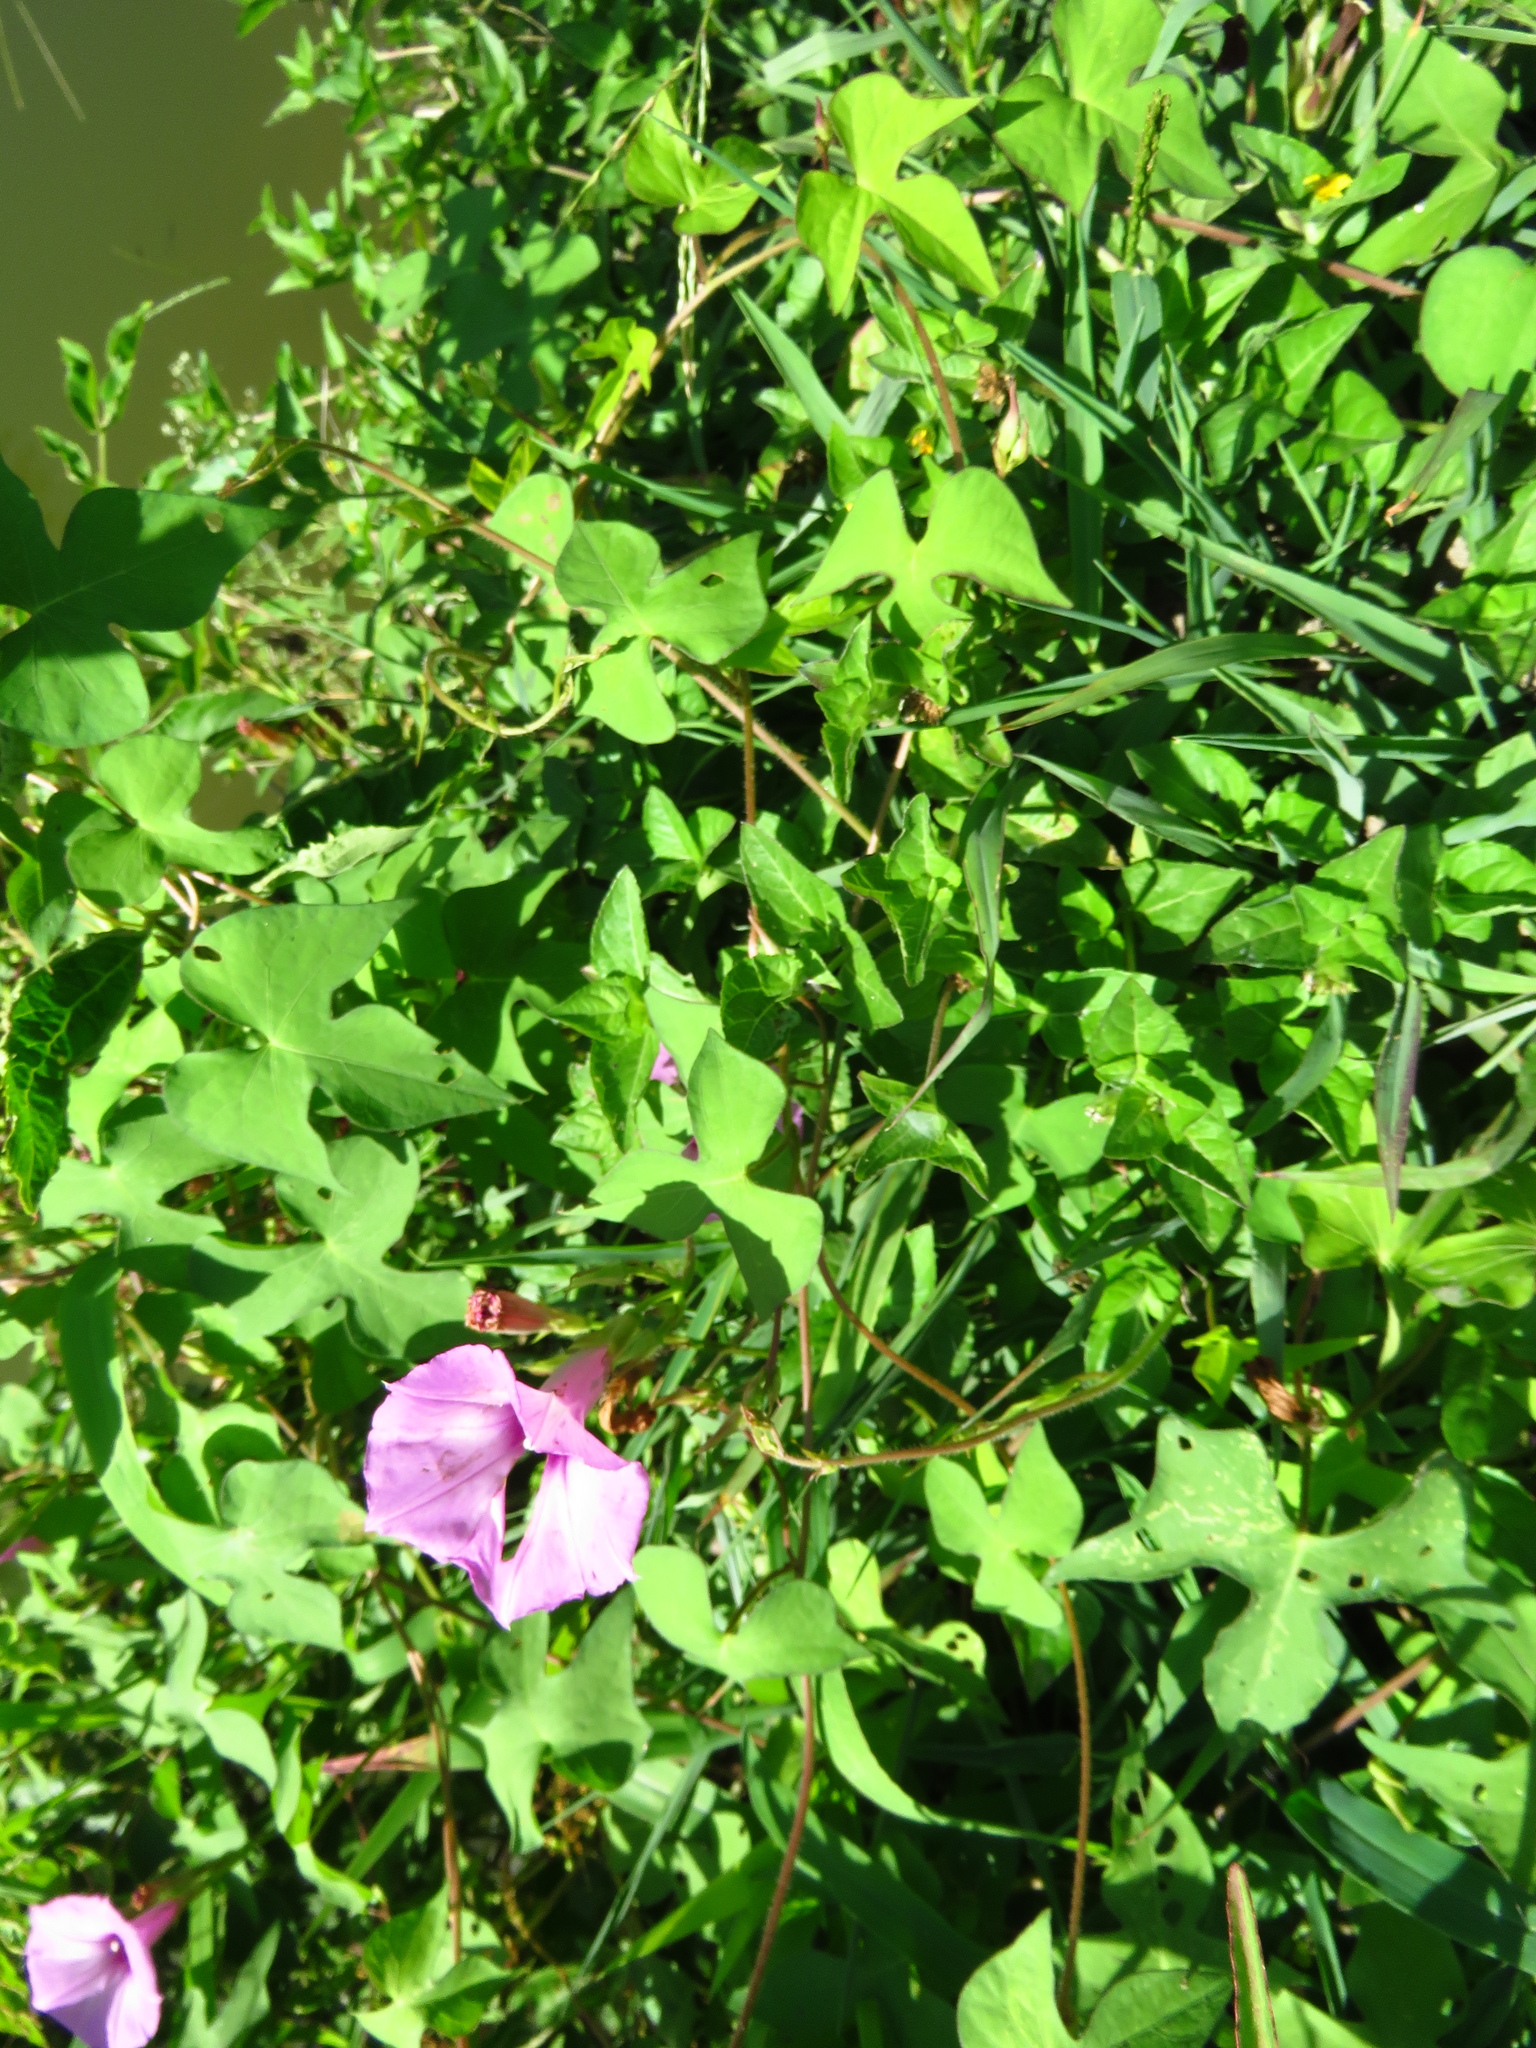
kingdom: Plantae
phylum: Tracheophyta
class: Magnoliopsida
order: Solanales
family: Convolvulaceae
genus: Ipomoea
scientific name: Ipomoea cordatotriloba
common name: Cotton morning glory
